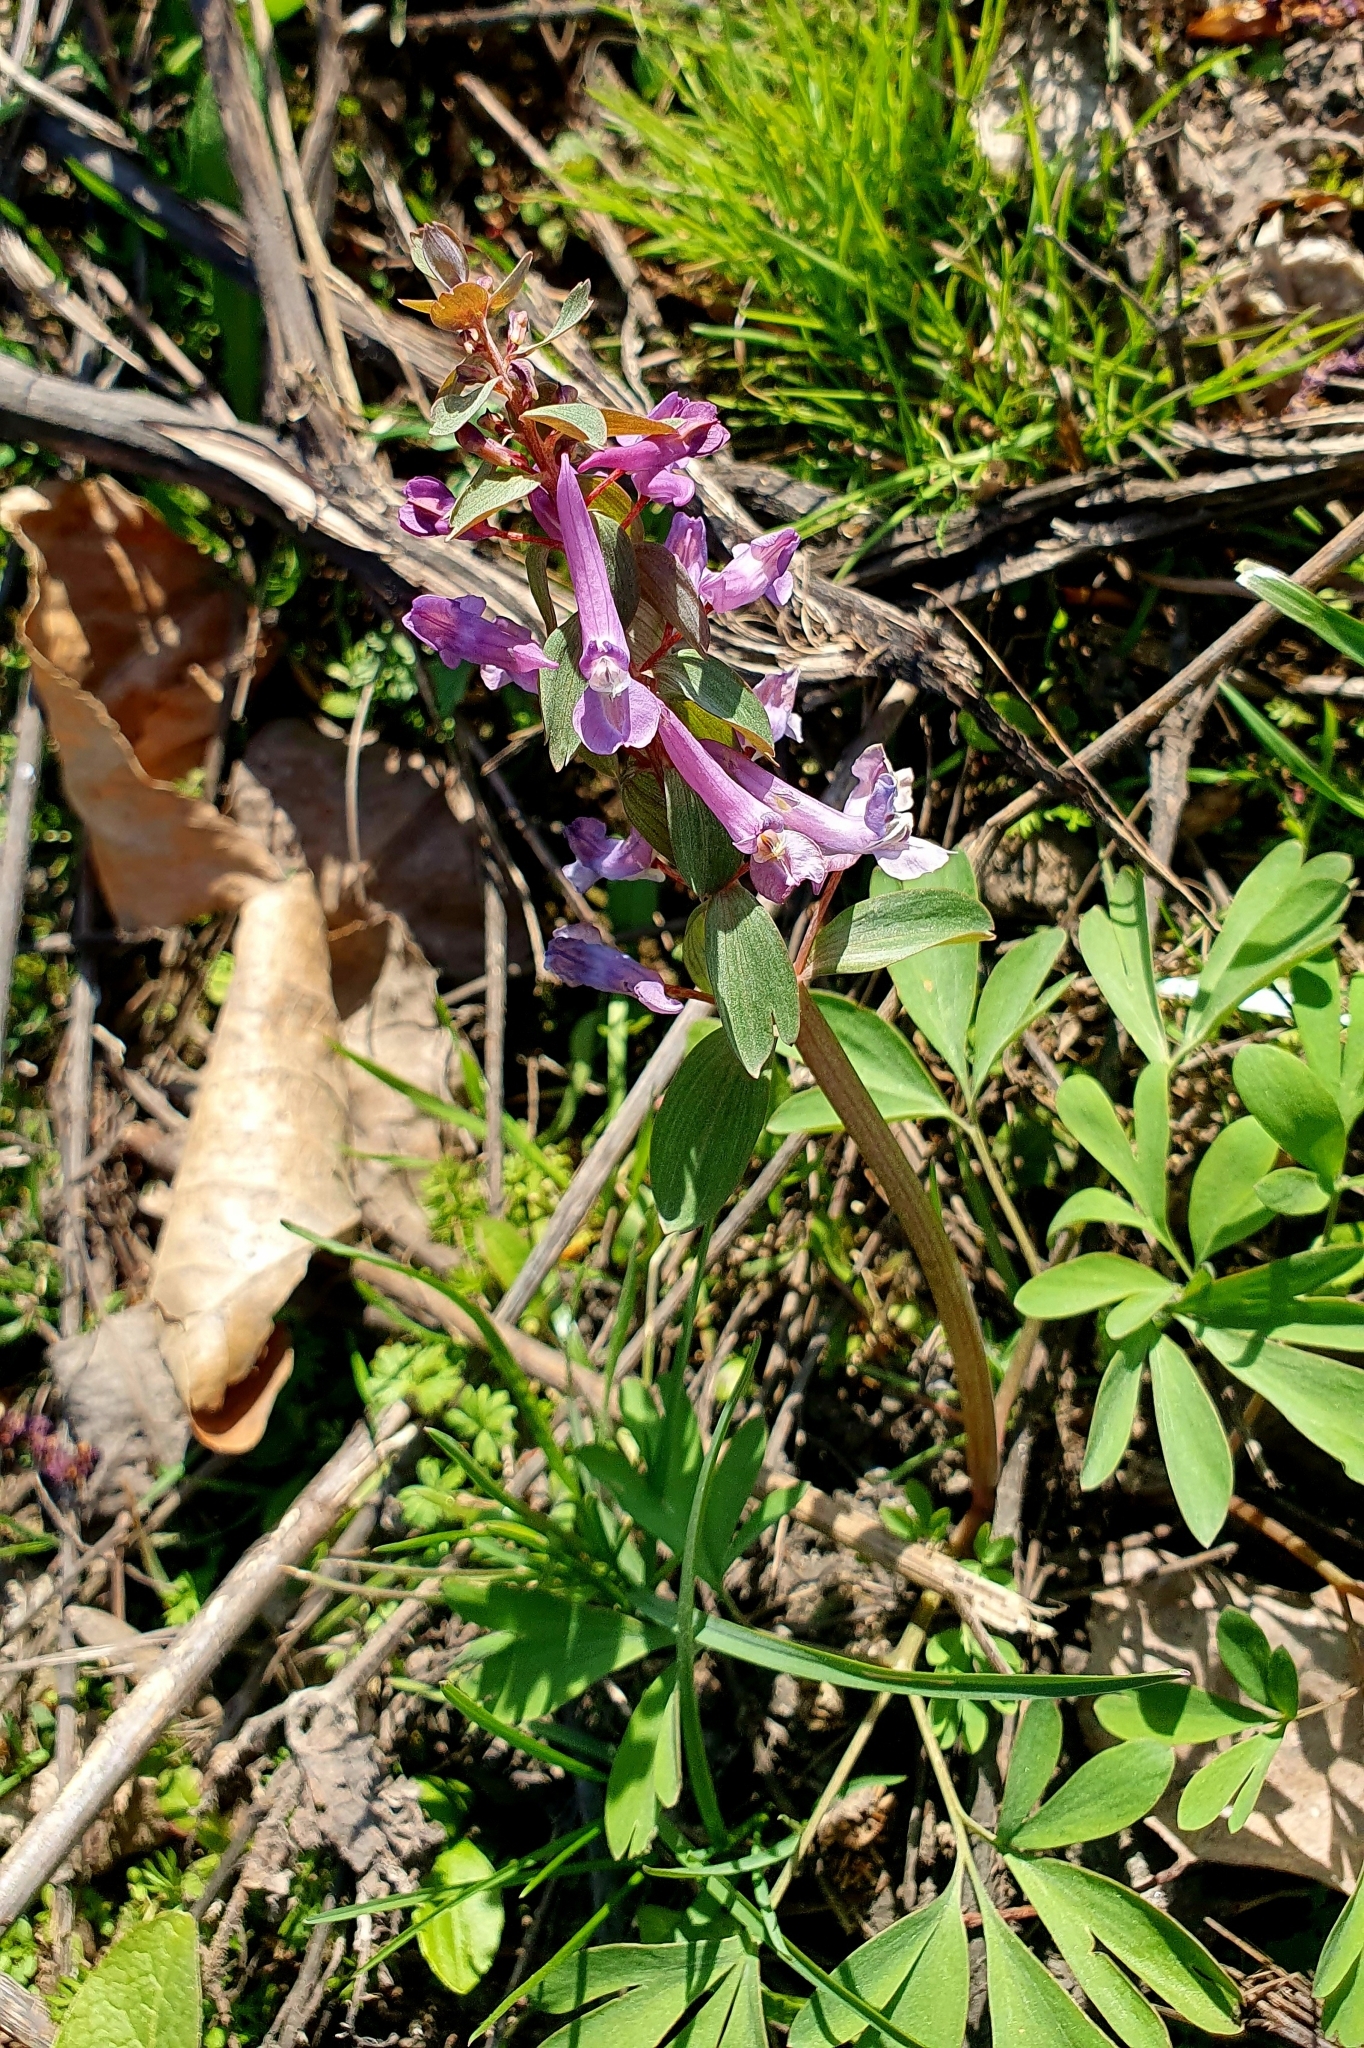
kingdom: Plantae
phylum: Tracheophyta
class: Magnoliopsida
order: Ranunculales
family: Papaveraceae
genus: Corydalis
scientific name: Corydalis solida
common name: Bird-in-a-bush
